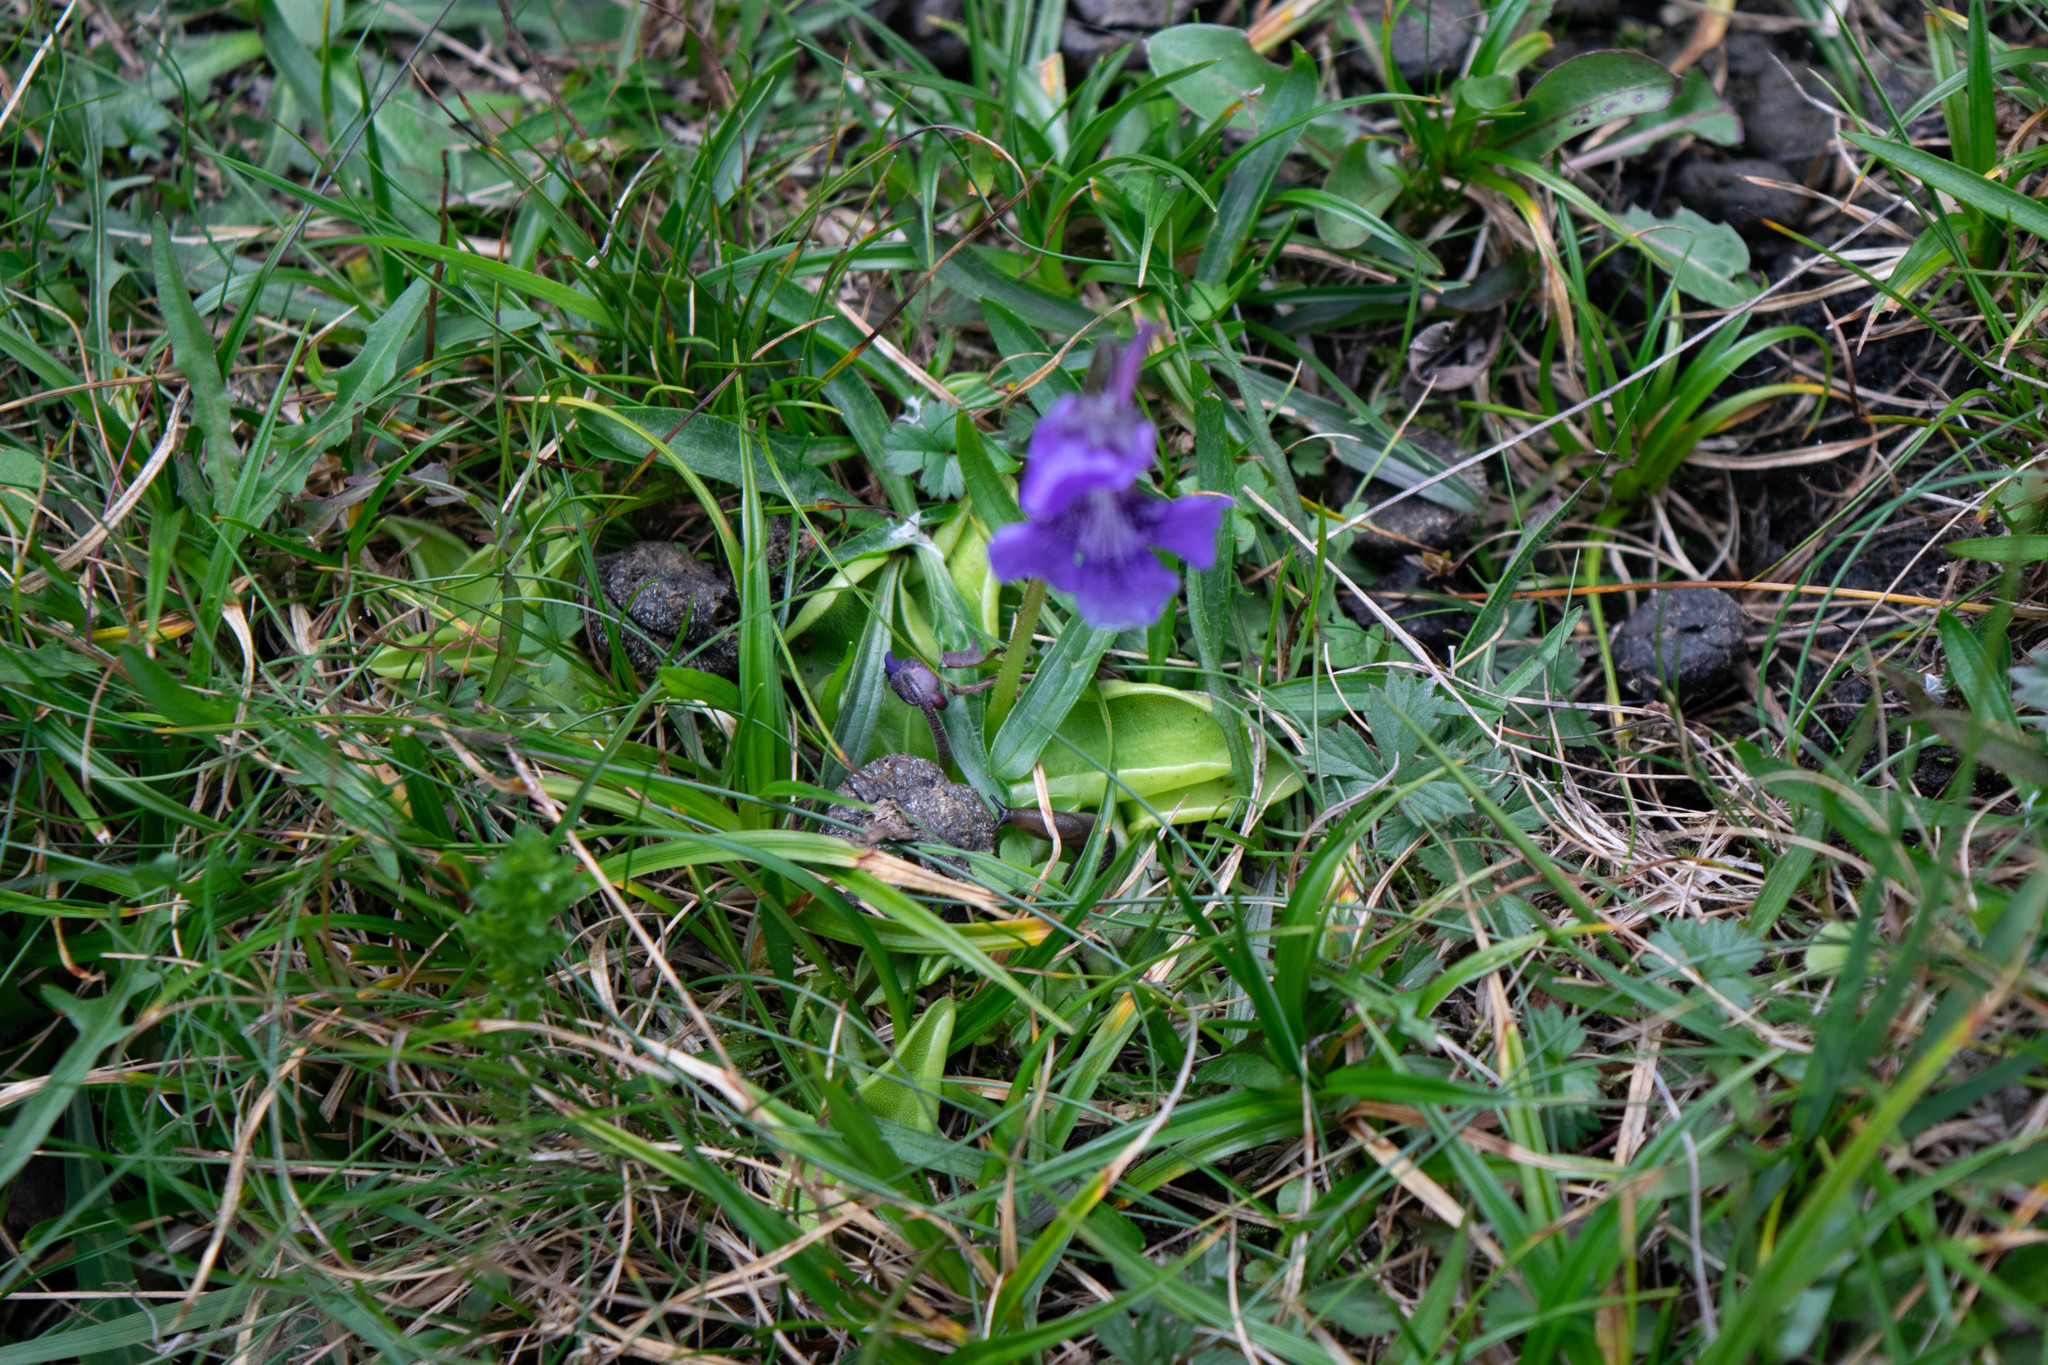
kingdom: Plantae
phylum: Tracheophyta
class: Magnoliopsida
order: Lamiales
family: Lentibulariaceae
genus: Pinguicula
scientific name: Pinguicula grandiflora
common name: Large-flowered butterwort
